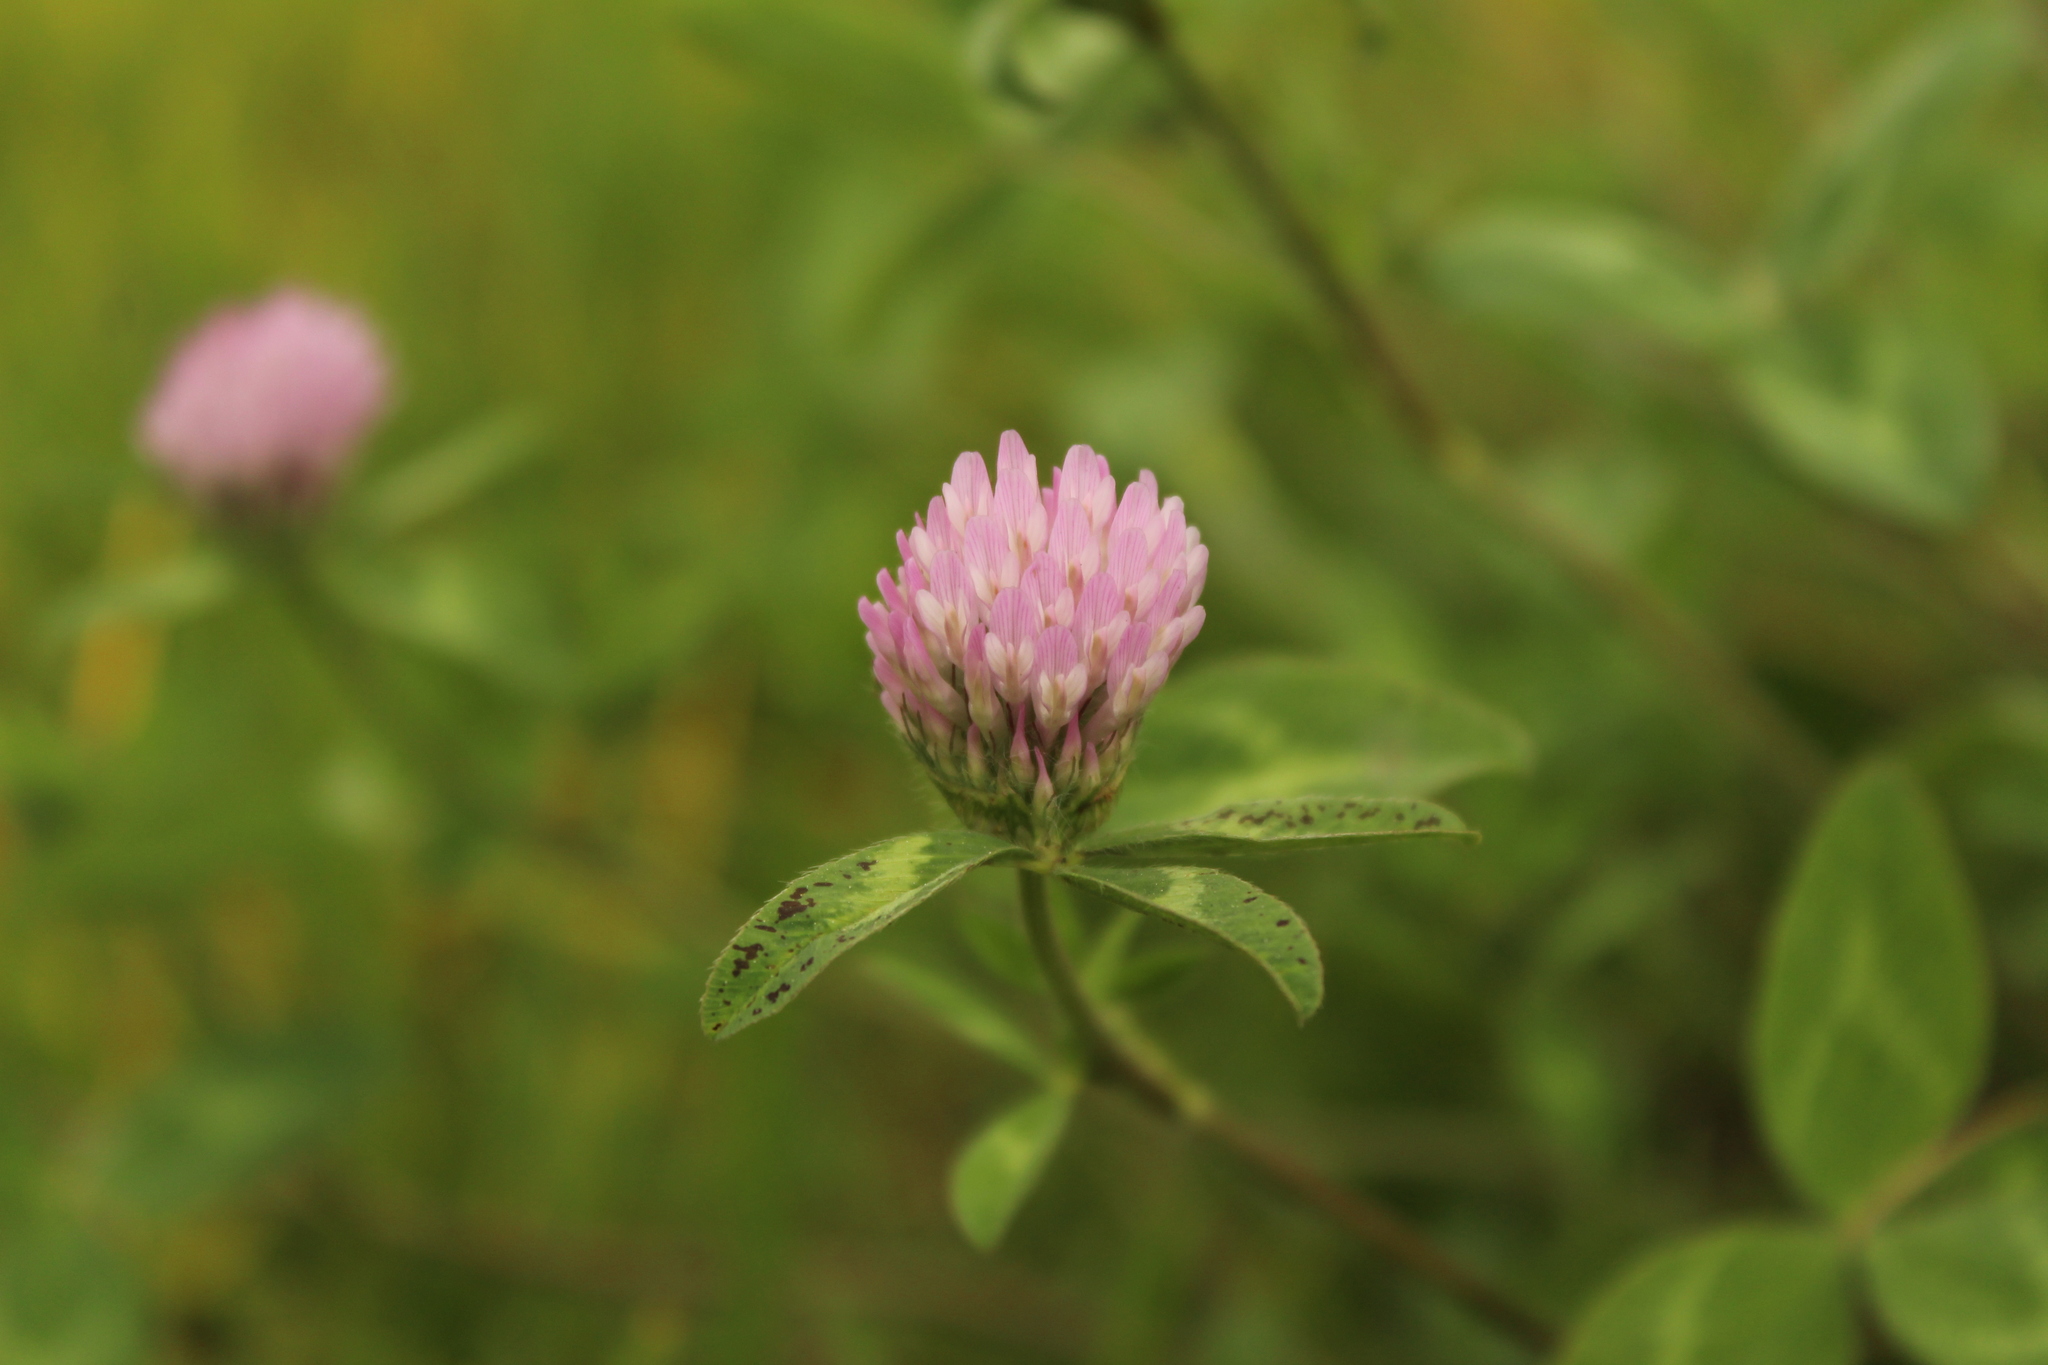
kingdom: Plantae
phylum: Tracheophyta
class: Magnoliopsida
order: Fabales
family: Fabaceae
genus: Trifolium
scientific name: Trifolium pratense
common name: Red clover
